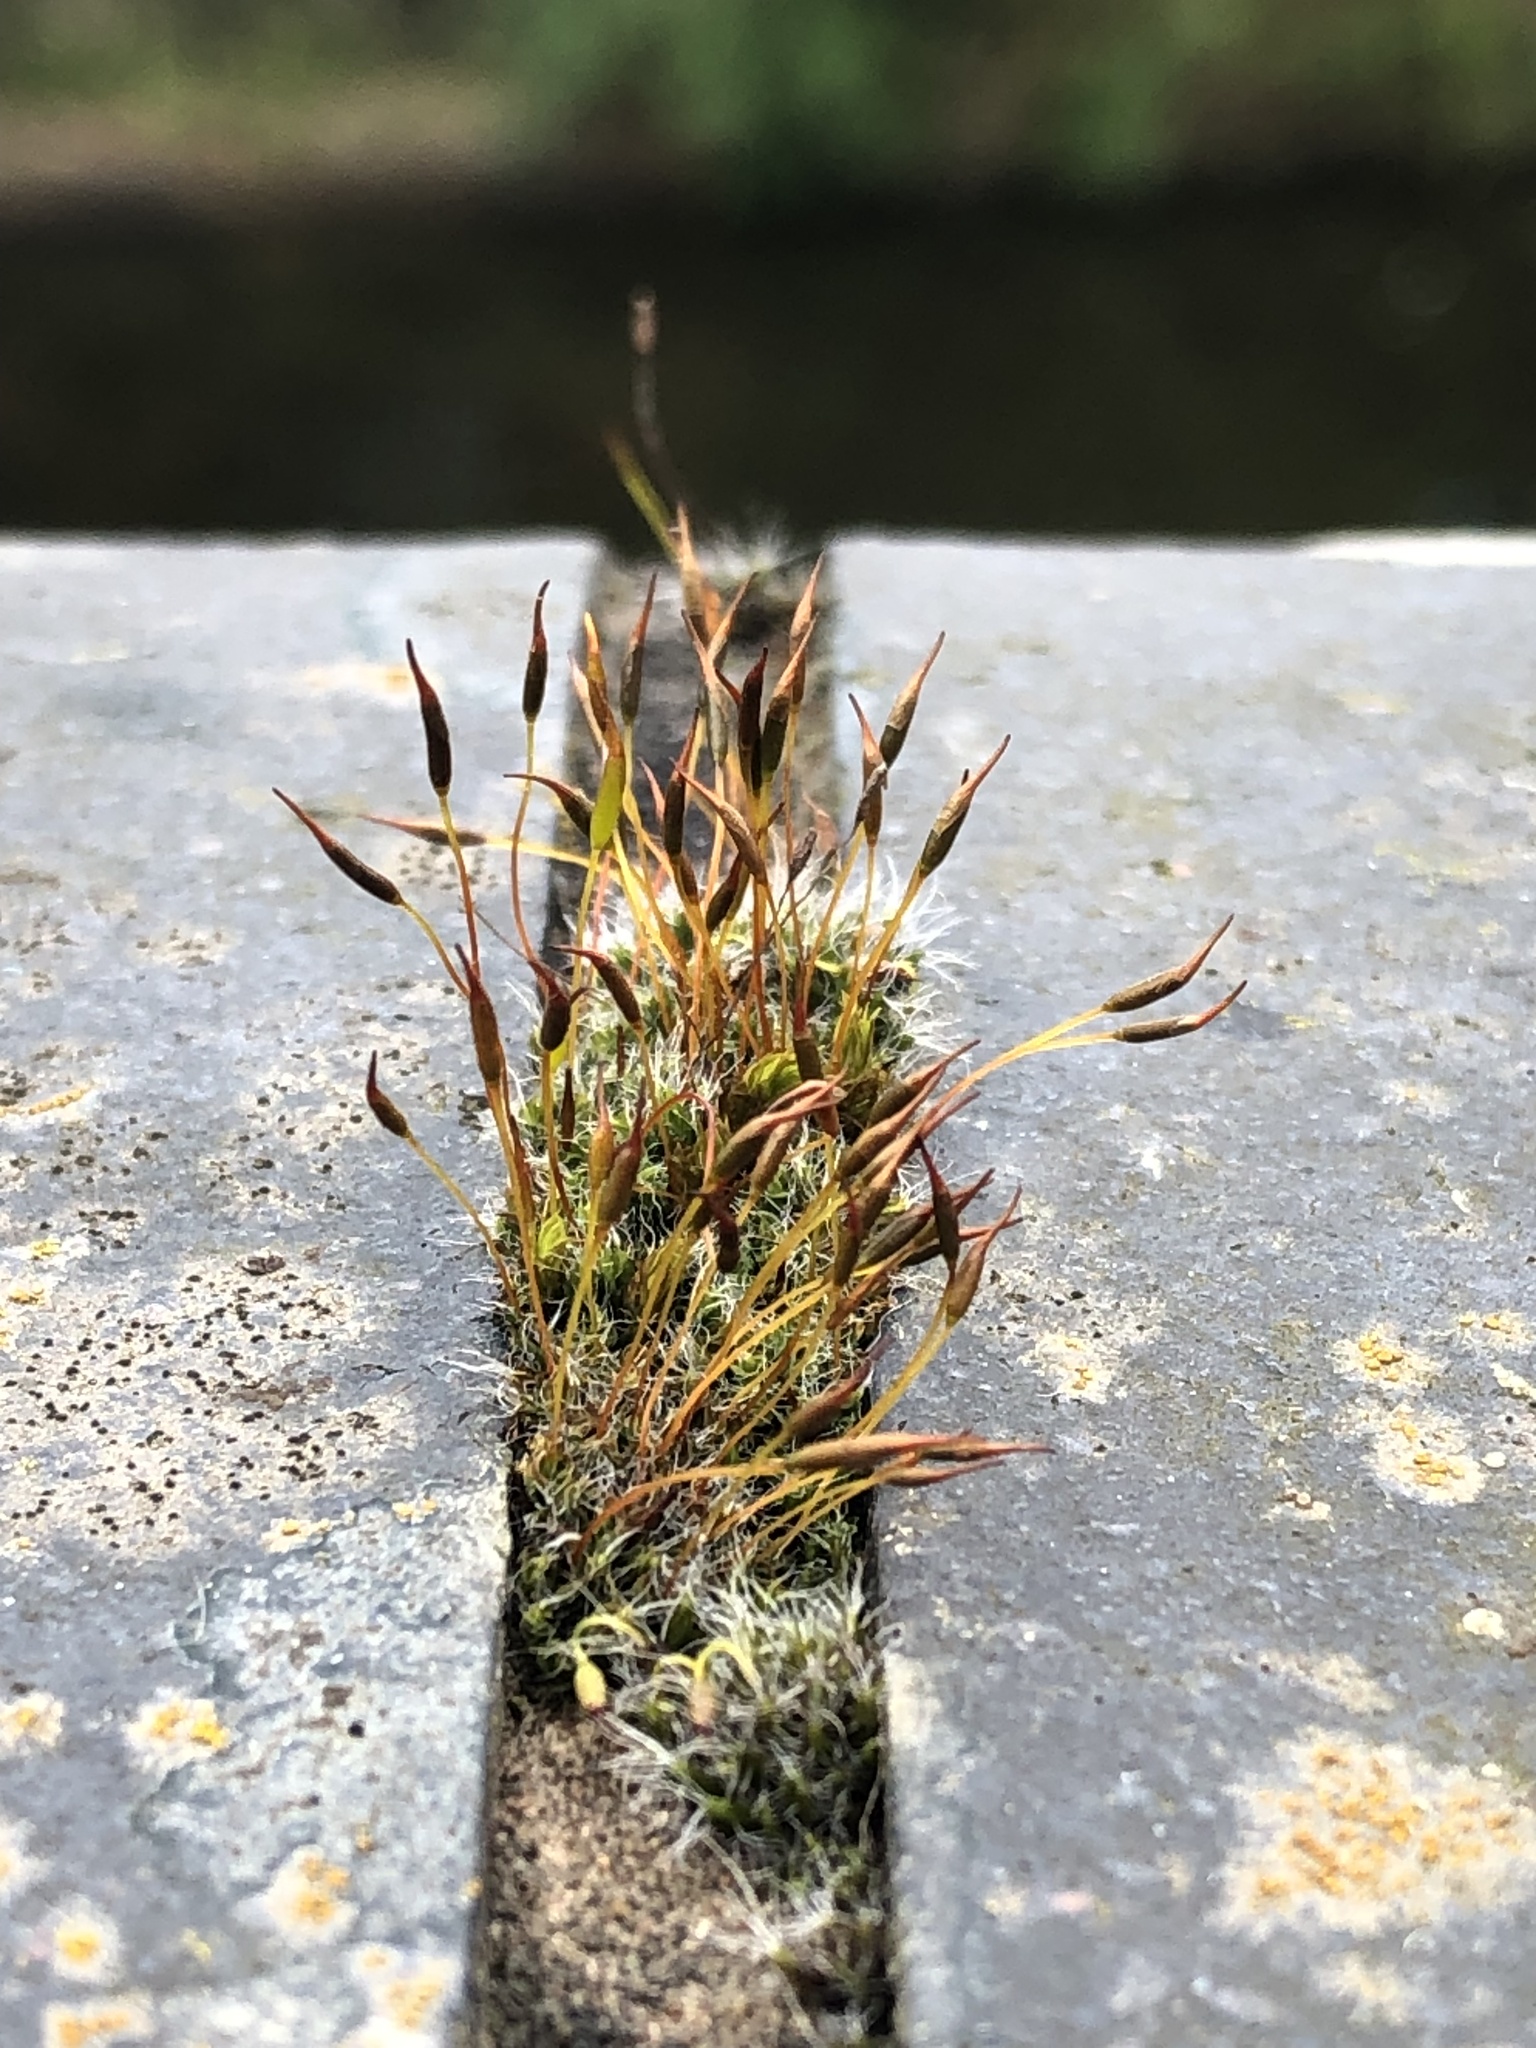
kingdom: Plantae
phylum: Bryophyta
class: Bryopsida
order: Pottiales
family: Pottiaceae
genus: Tortula
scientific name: Tortula muralis
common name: Wall screw-moss
